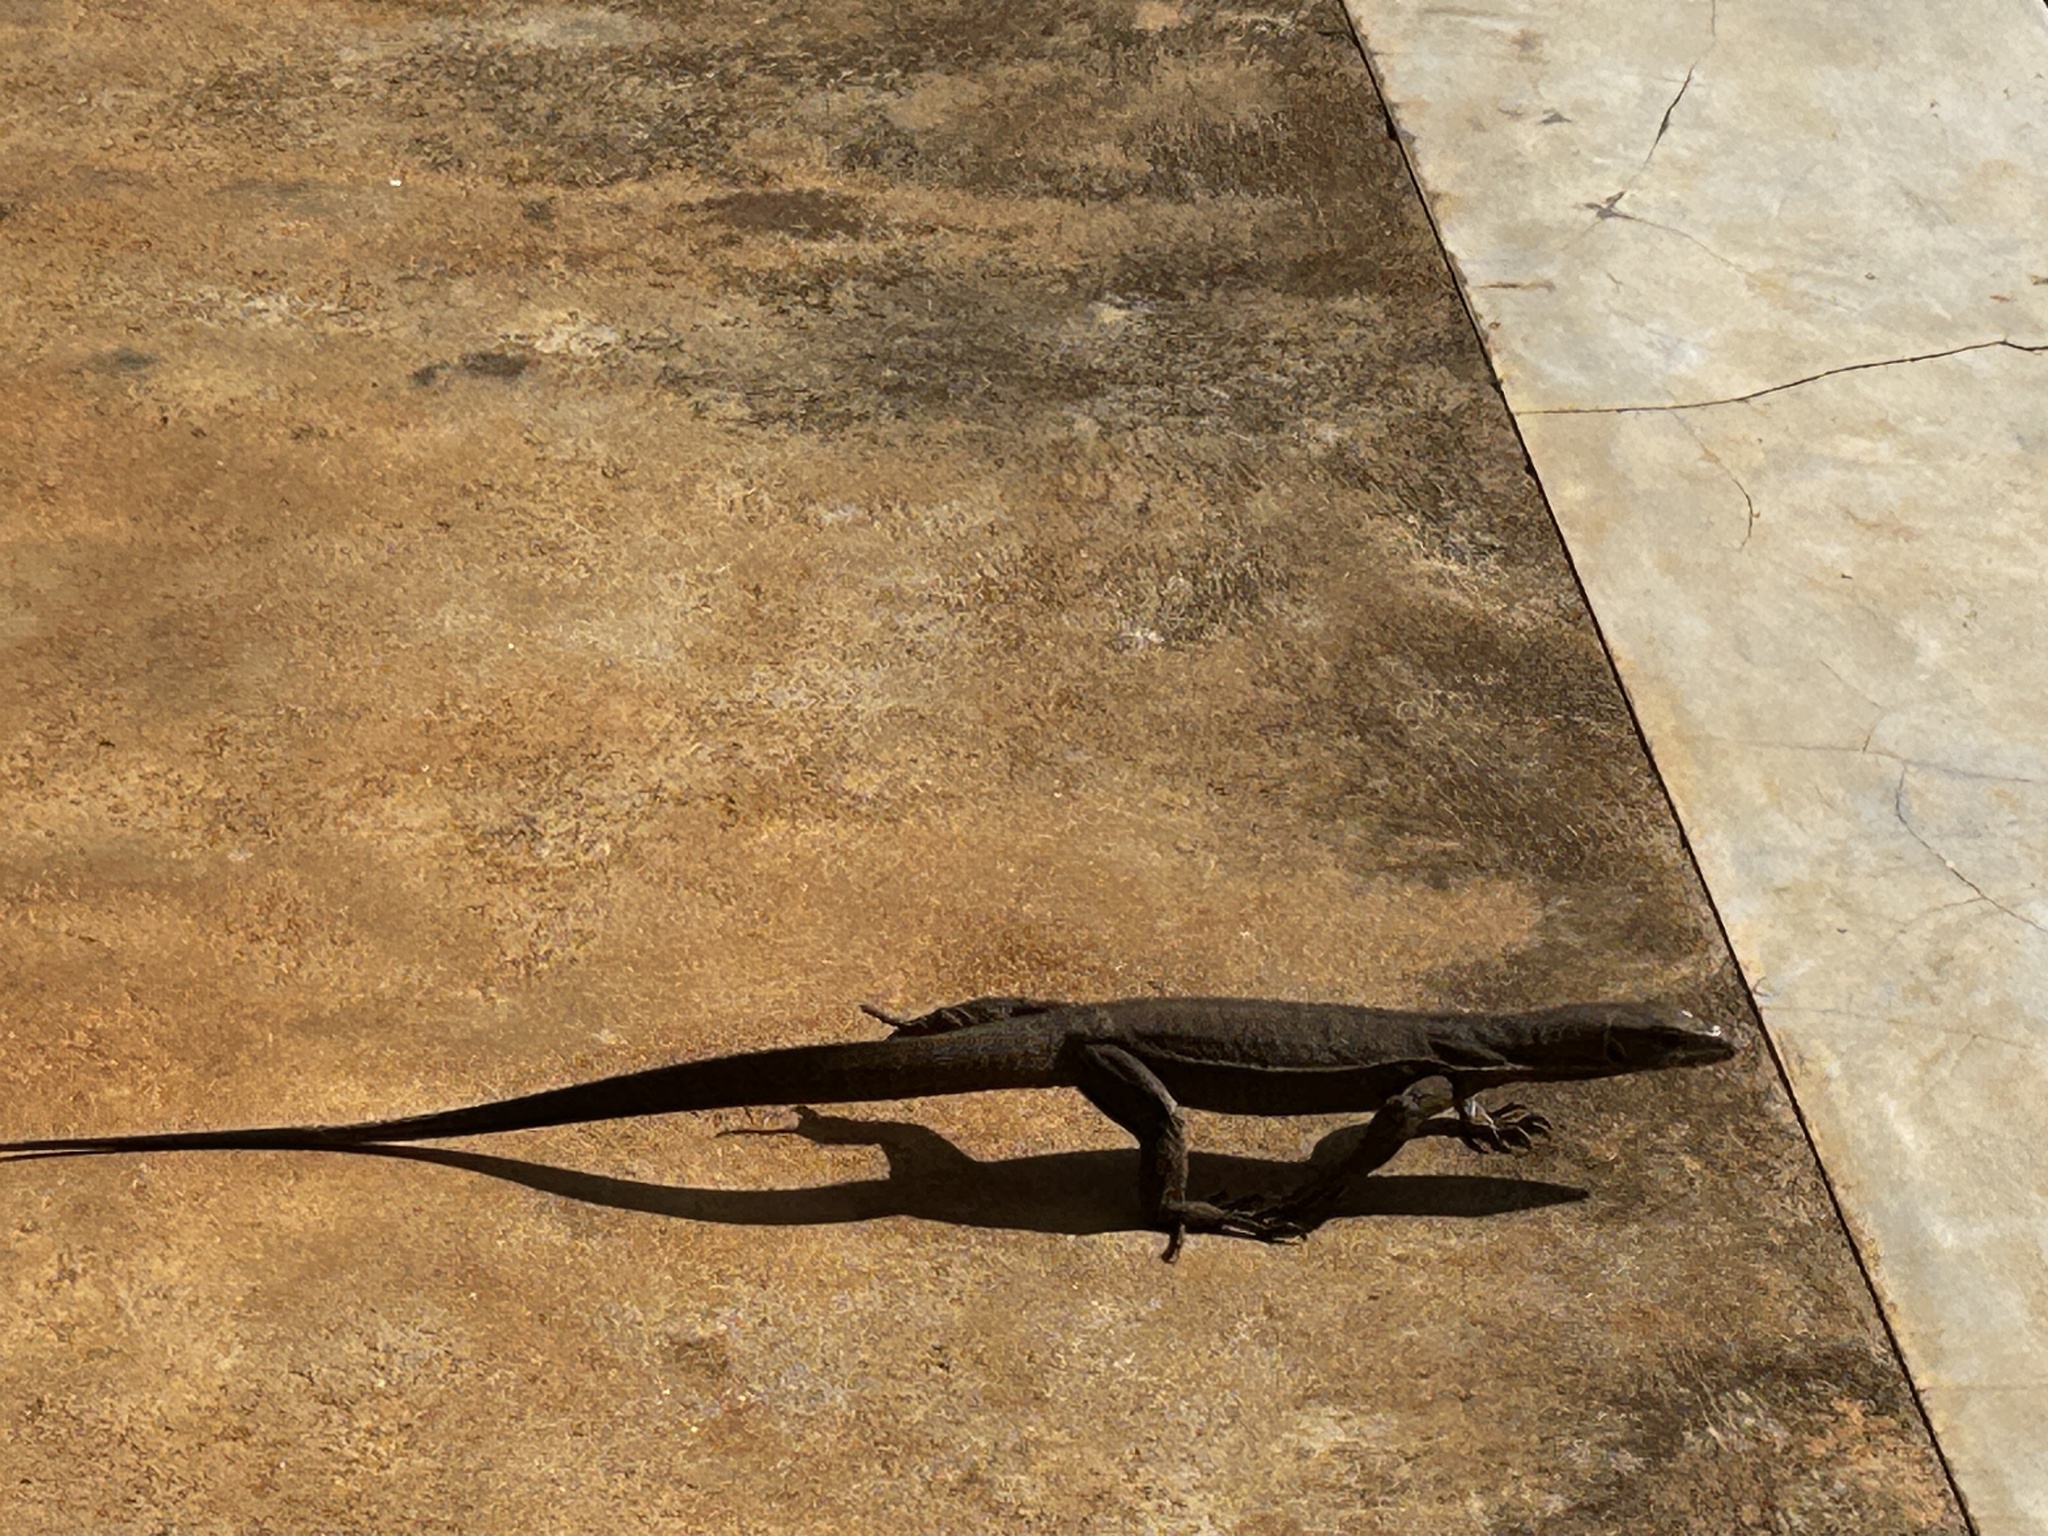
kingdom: Animalia
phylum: Chordata
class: Squamata
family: Varanidae
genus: Varanus
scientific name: Varanus bengalensis
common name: Bengal monitor
